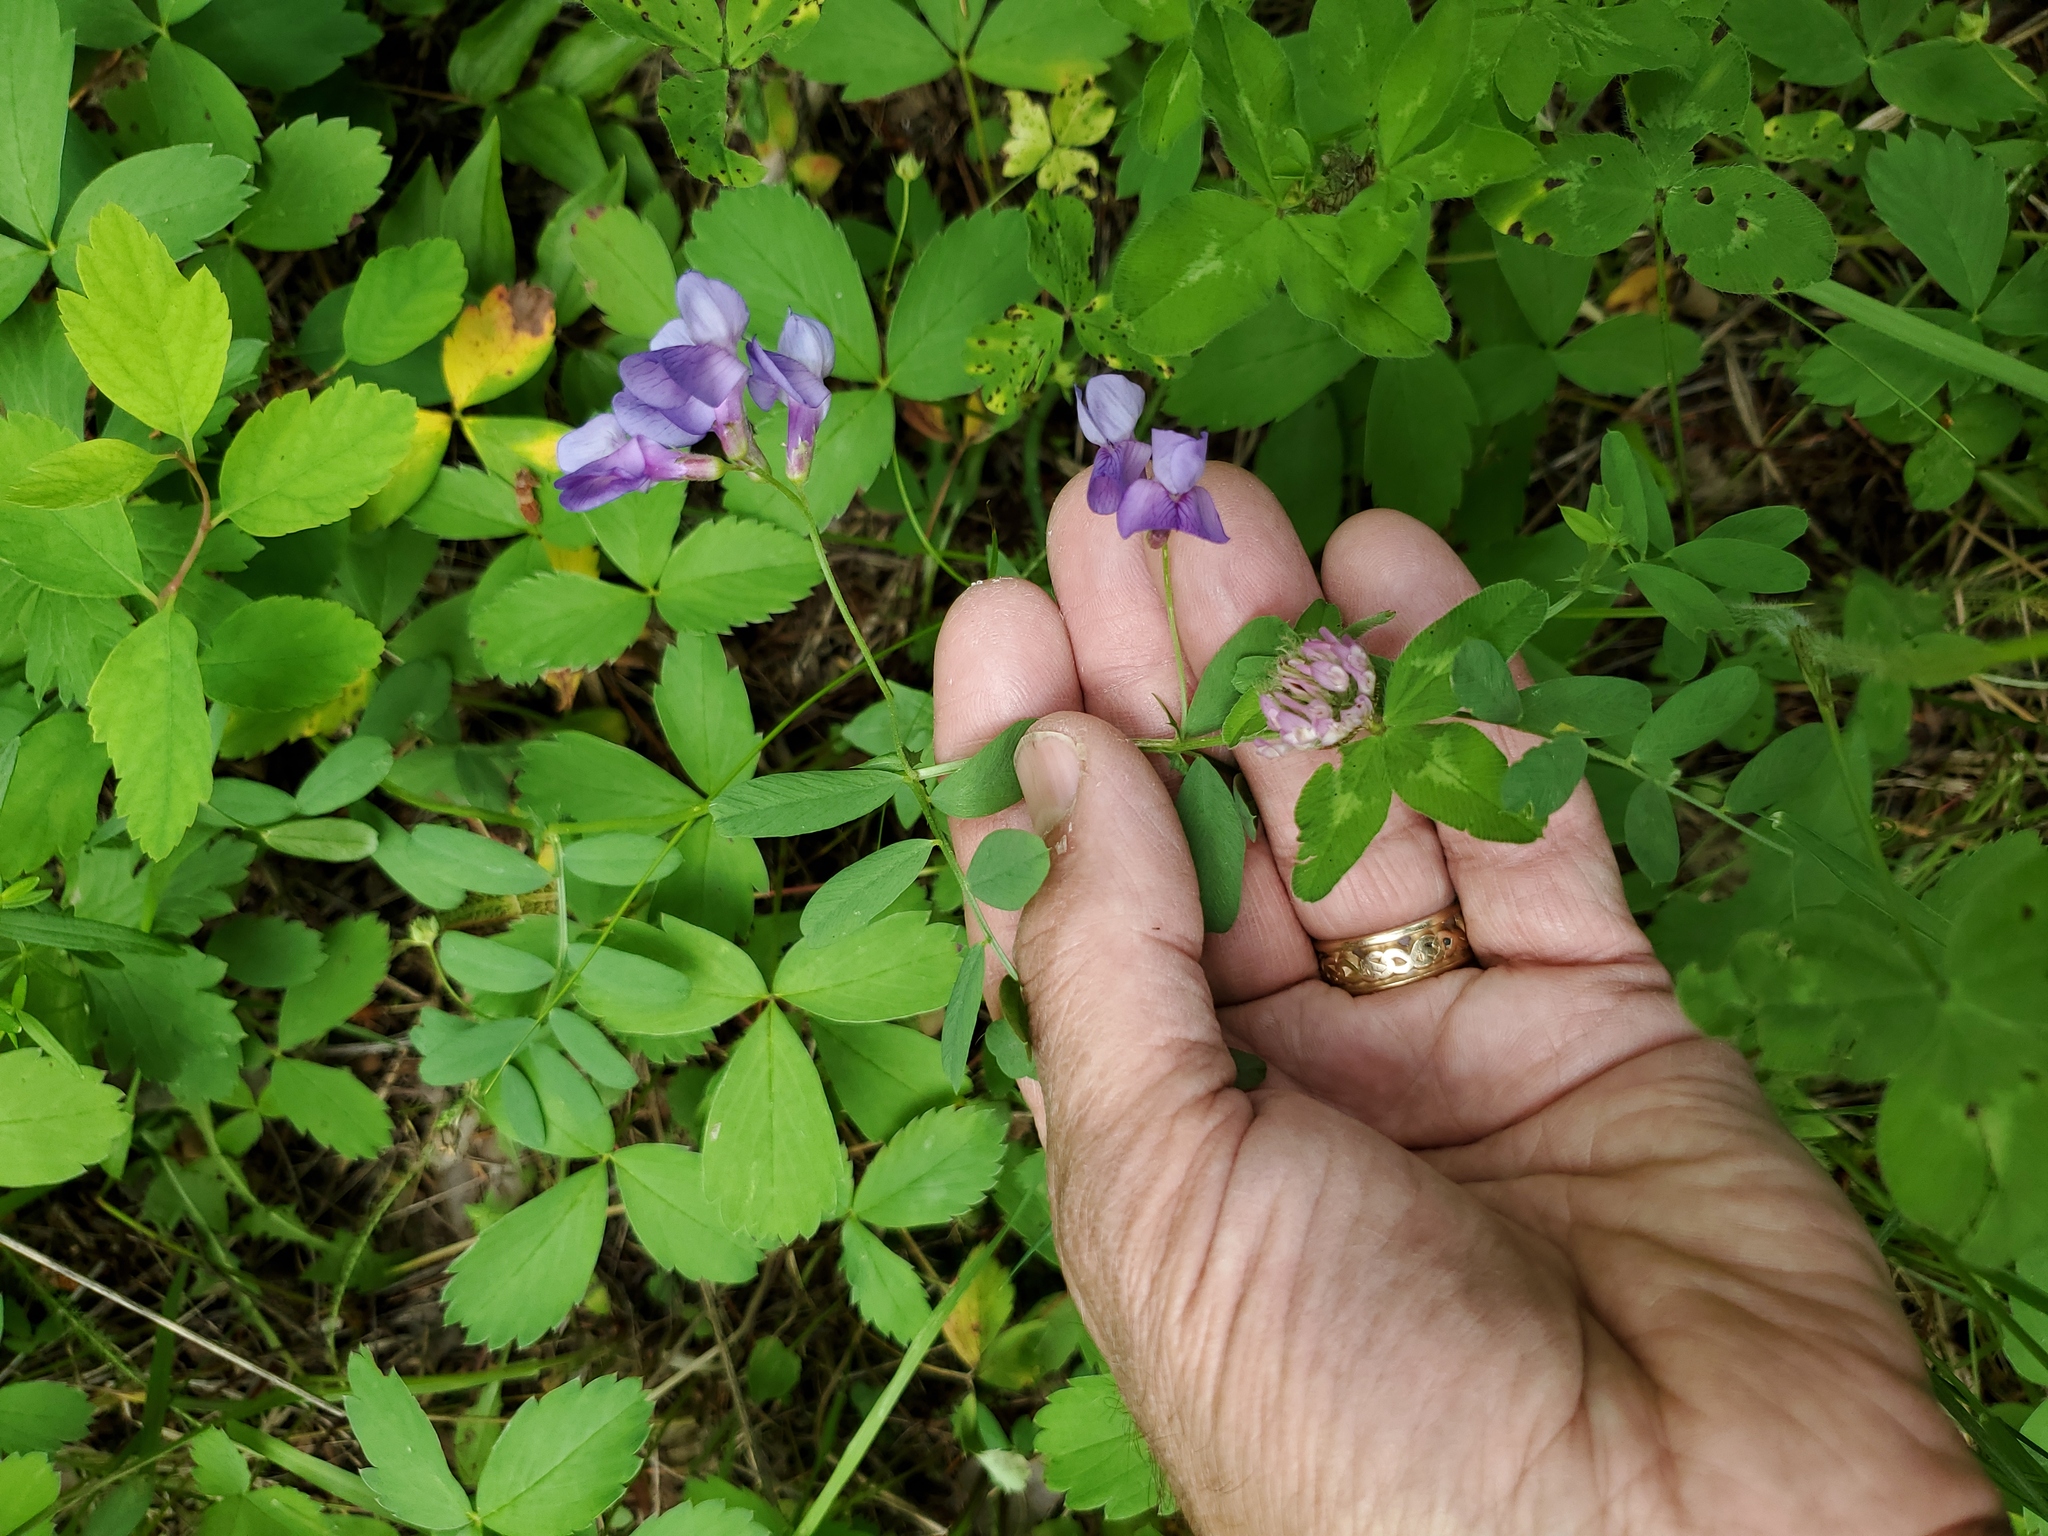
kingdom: Plantae
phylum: Tracheophyta
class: Magnoliopsida
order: Fabales
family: Fabaceae
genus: Vicia
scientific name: Vicia americana
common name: American vetch
